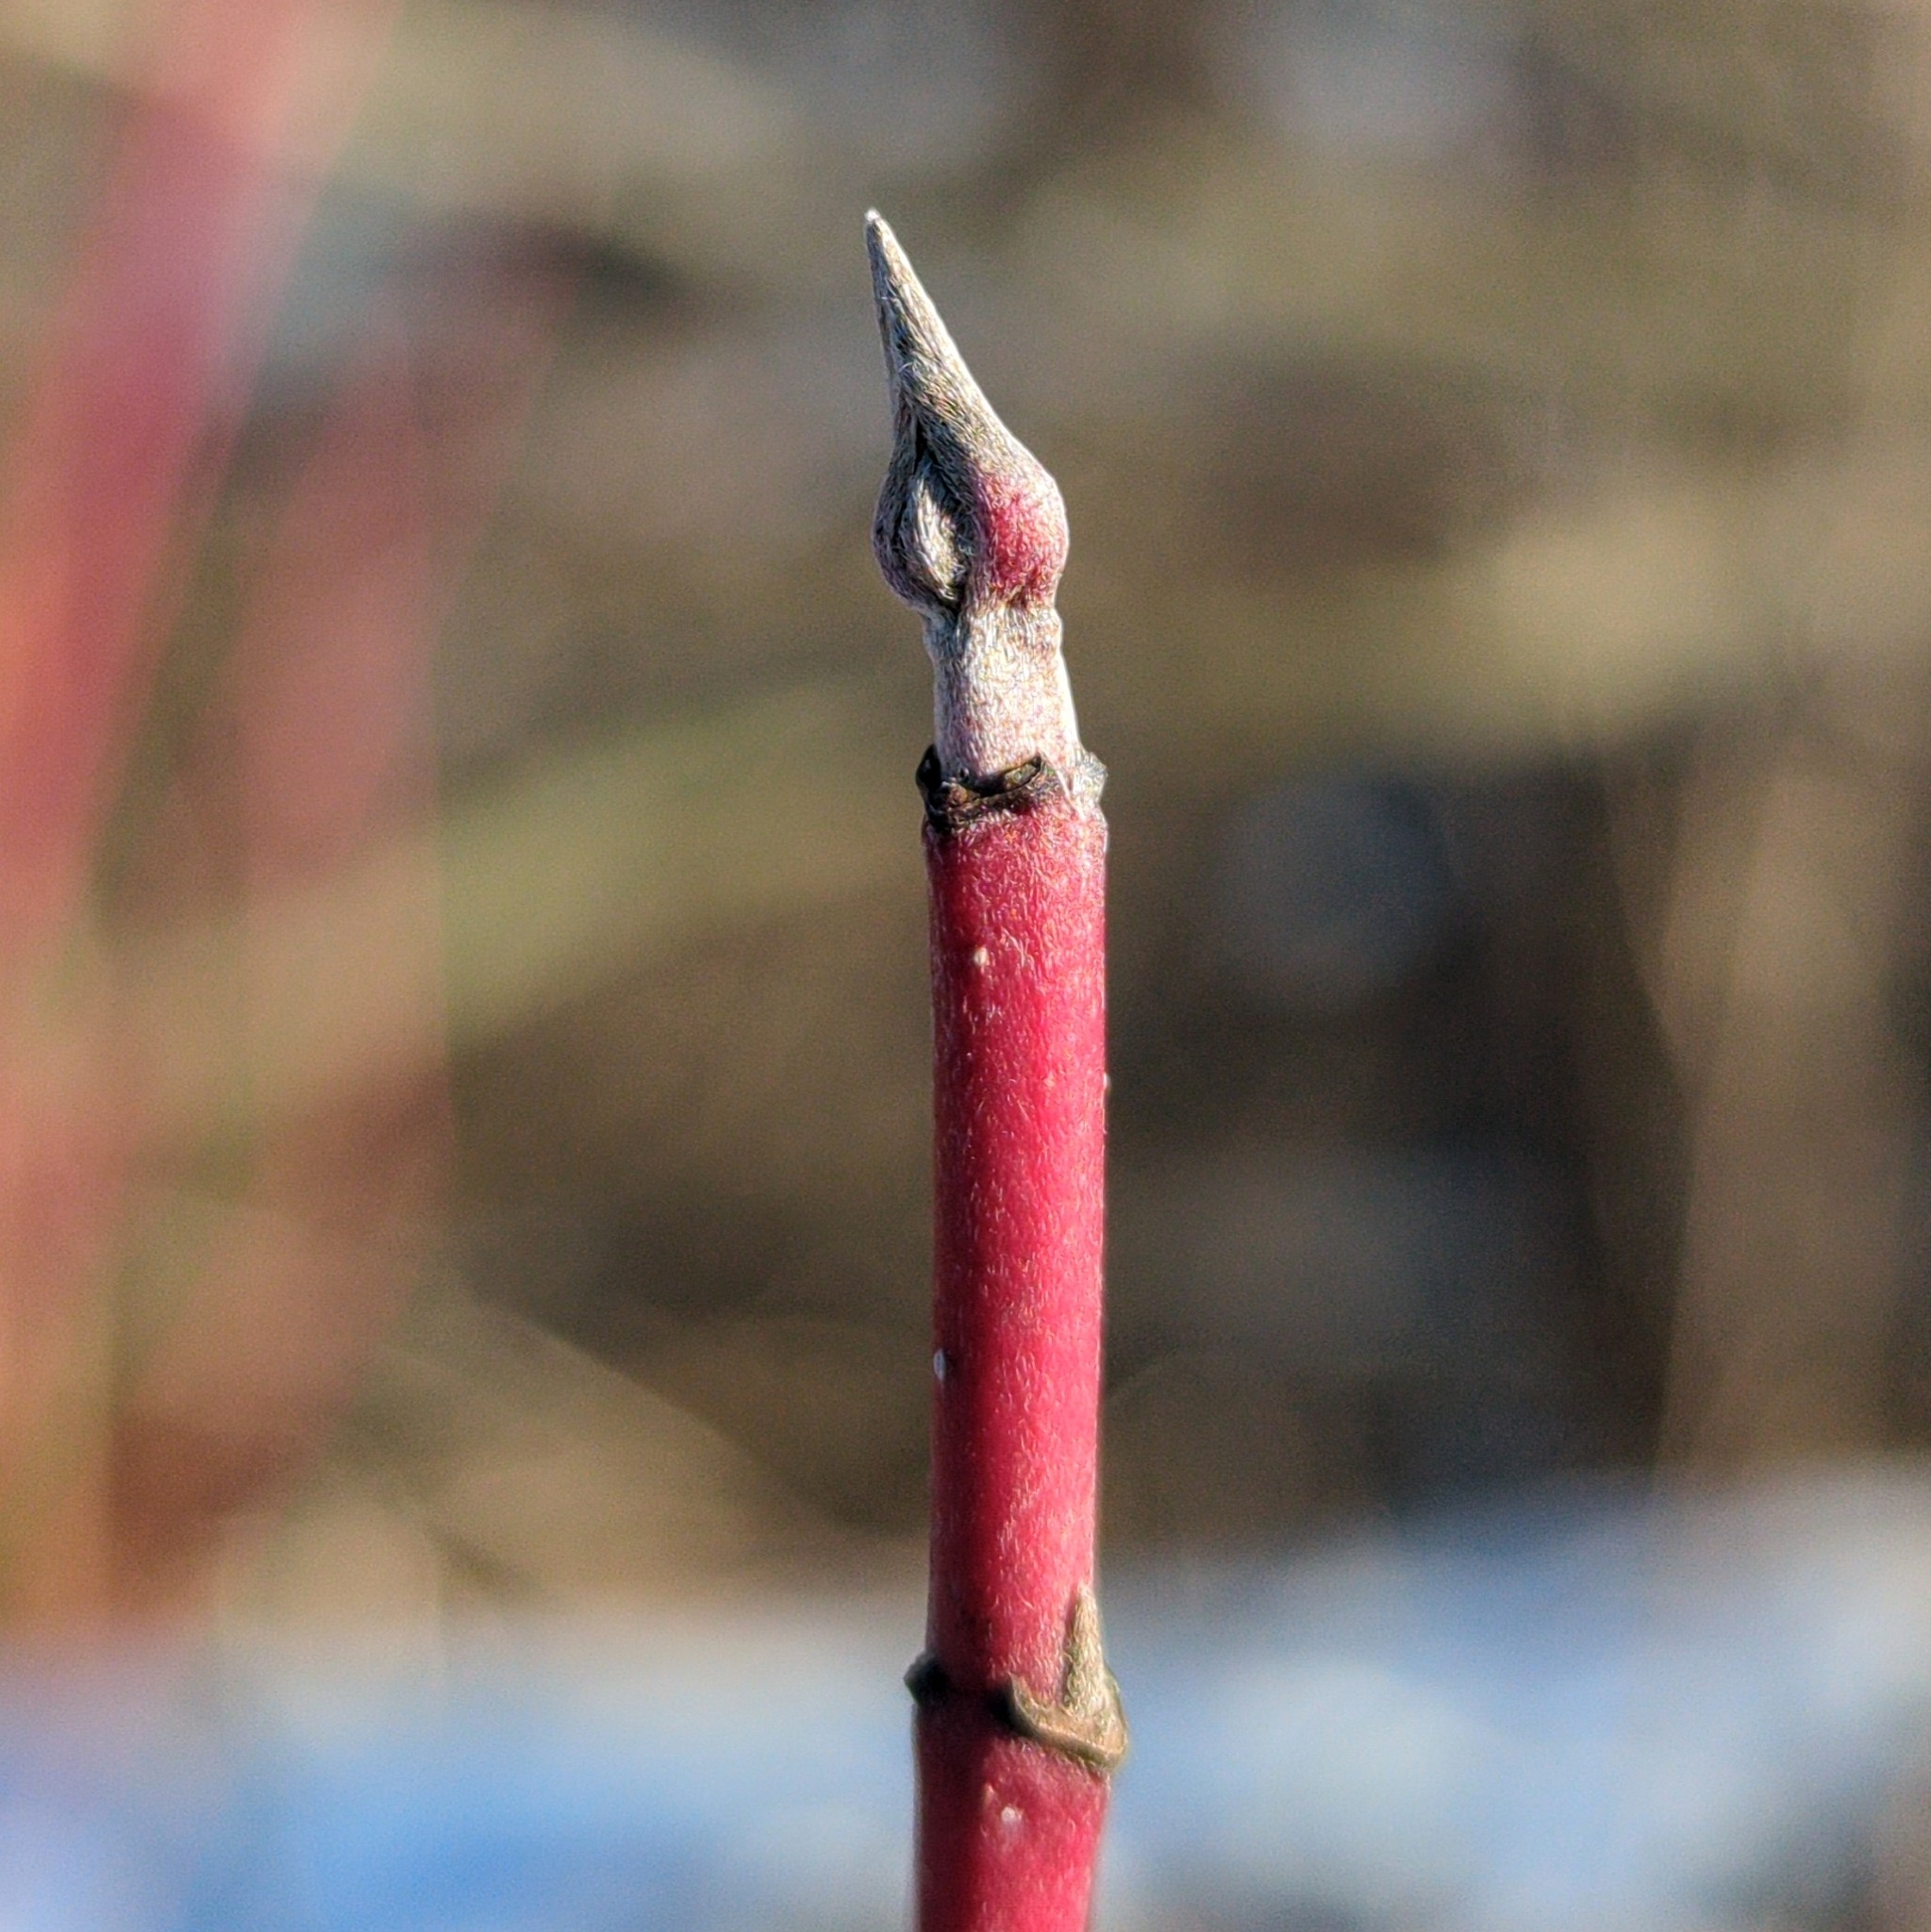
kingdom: Plantae
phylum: Tracheophyta
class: Magnoliopsida
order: Cornales
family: Cornaceae
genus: Cornus
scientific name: Cornus sericea
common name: Red-osier dogwood
